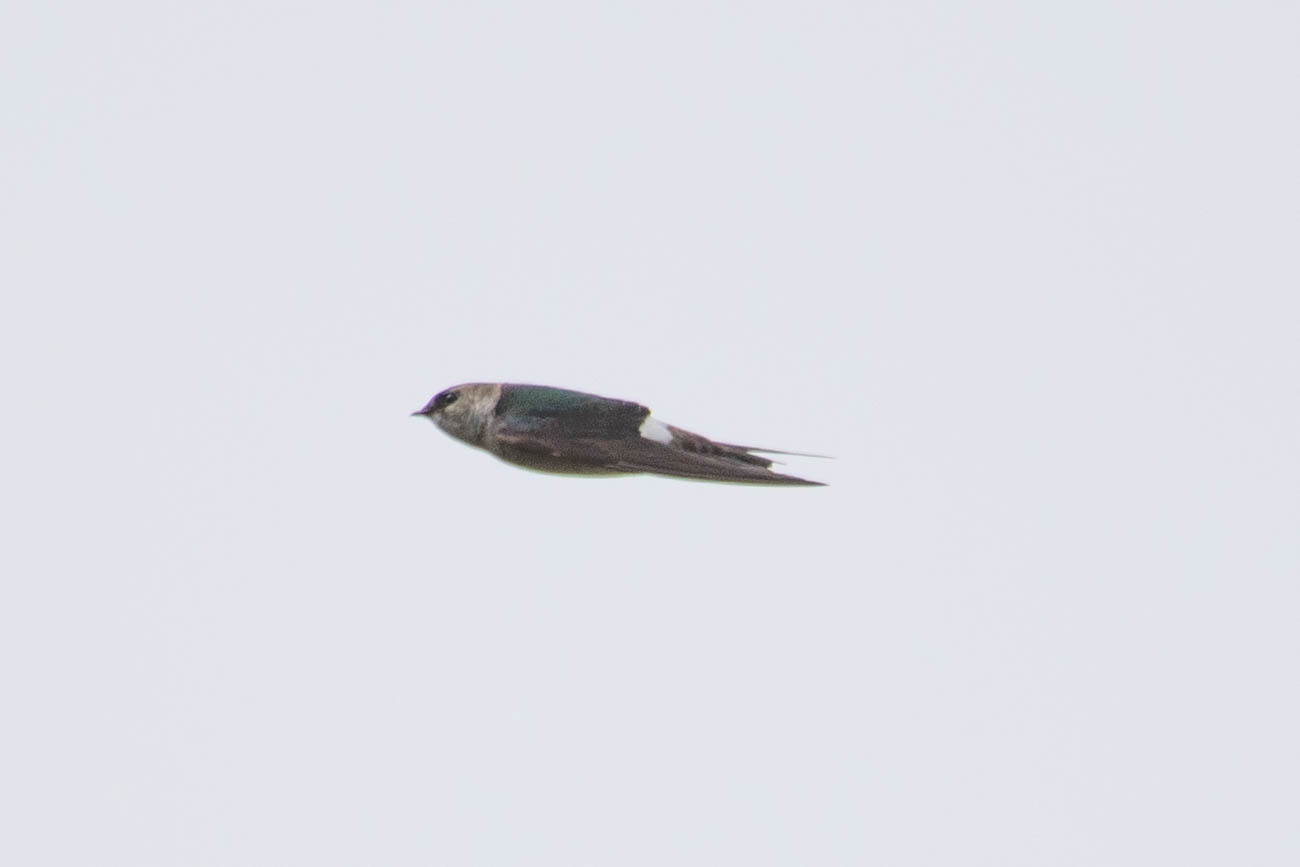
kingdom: Animalia
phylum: Chordata
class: Aves
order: Passeriformes
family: Hirundinidae
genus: Tachycineta
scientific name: Tachycineta thalassina
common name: Violet-green swallow
